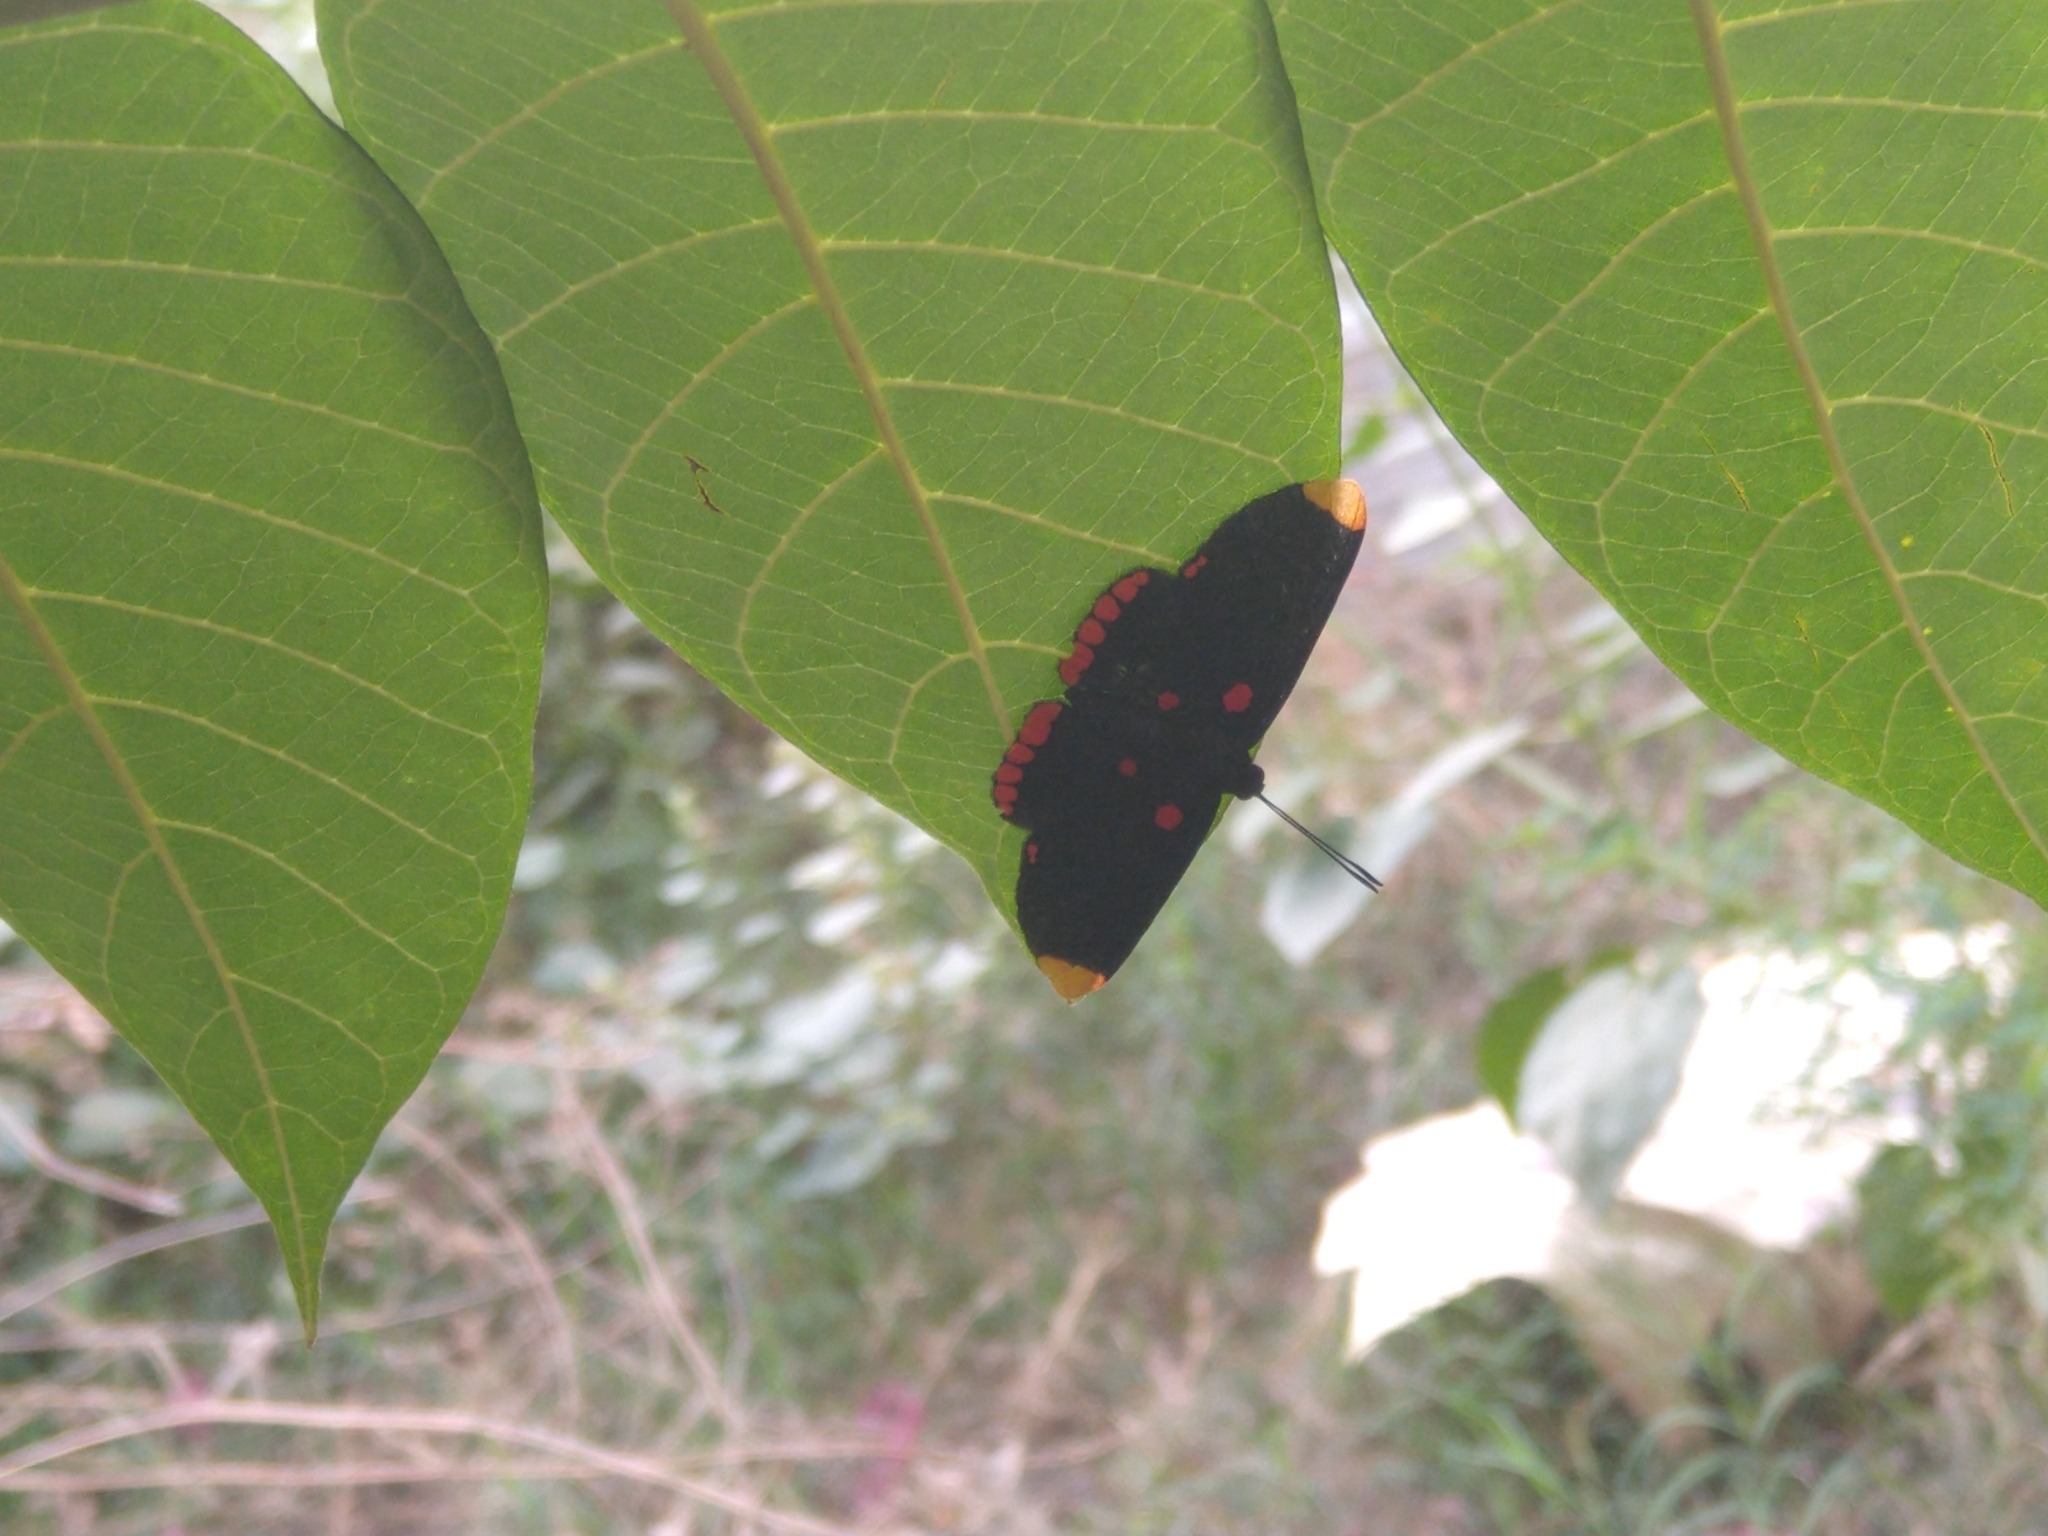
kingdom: Animalia
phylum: Arthropoda
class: Insecta
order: Lepidoptera
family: Lycaenidae
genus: Melanis
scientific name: Melanis pixe
